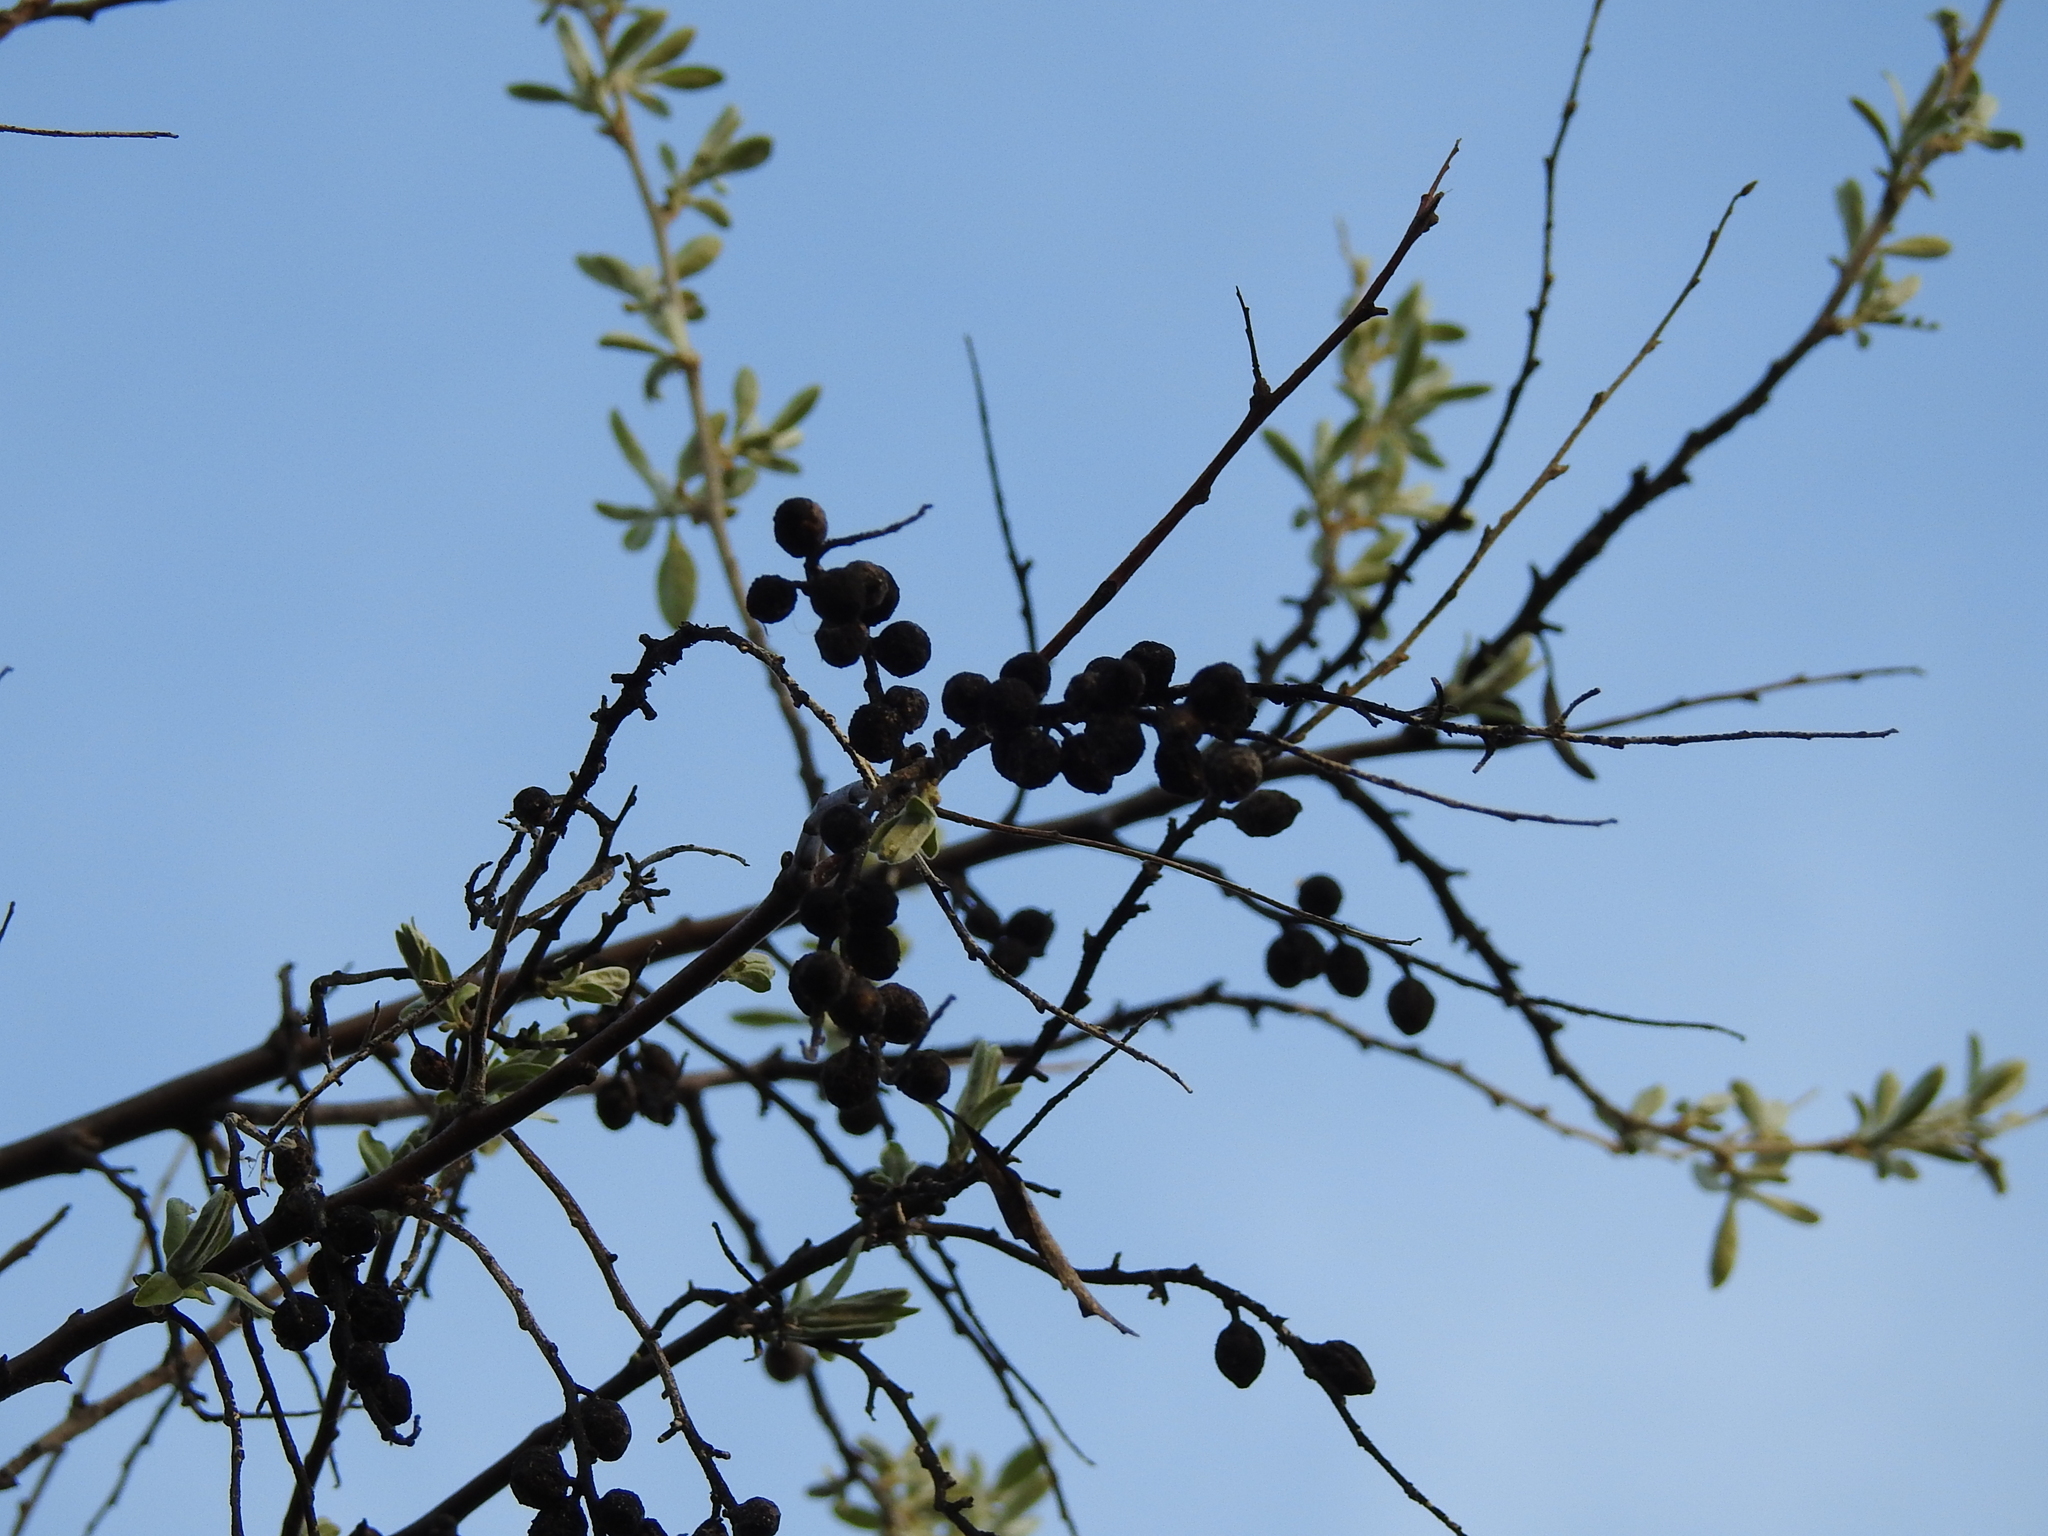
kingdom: Plantae
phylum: Tracheophyta
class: Magnoliopsida
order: Rosales
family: Rosaceae
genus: Prunus
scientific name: Prunus spinosa
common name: Blackthorn
